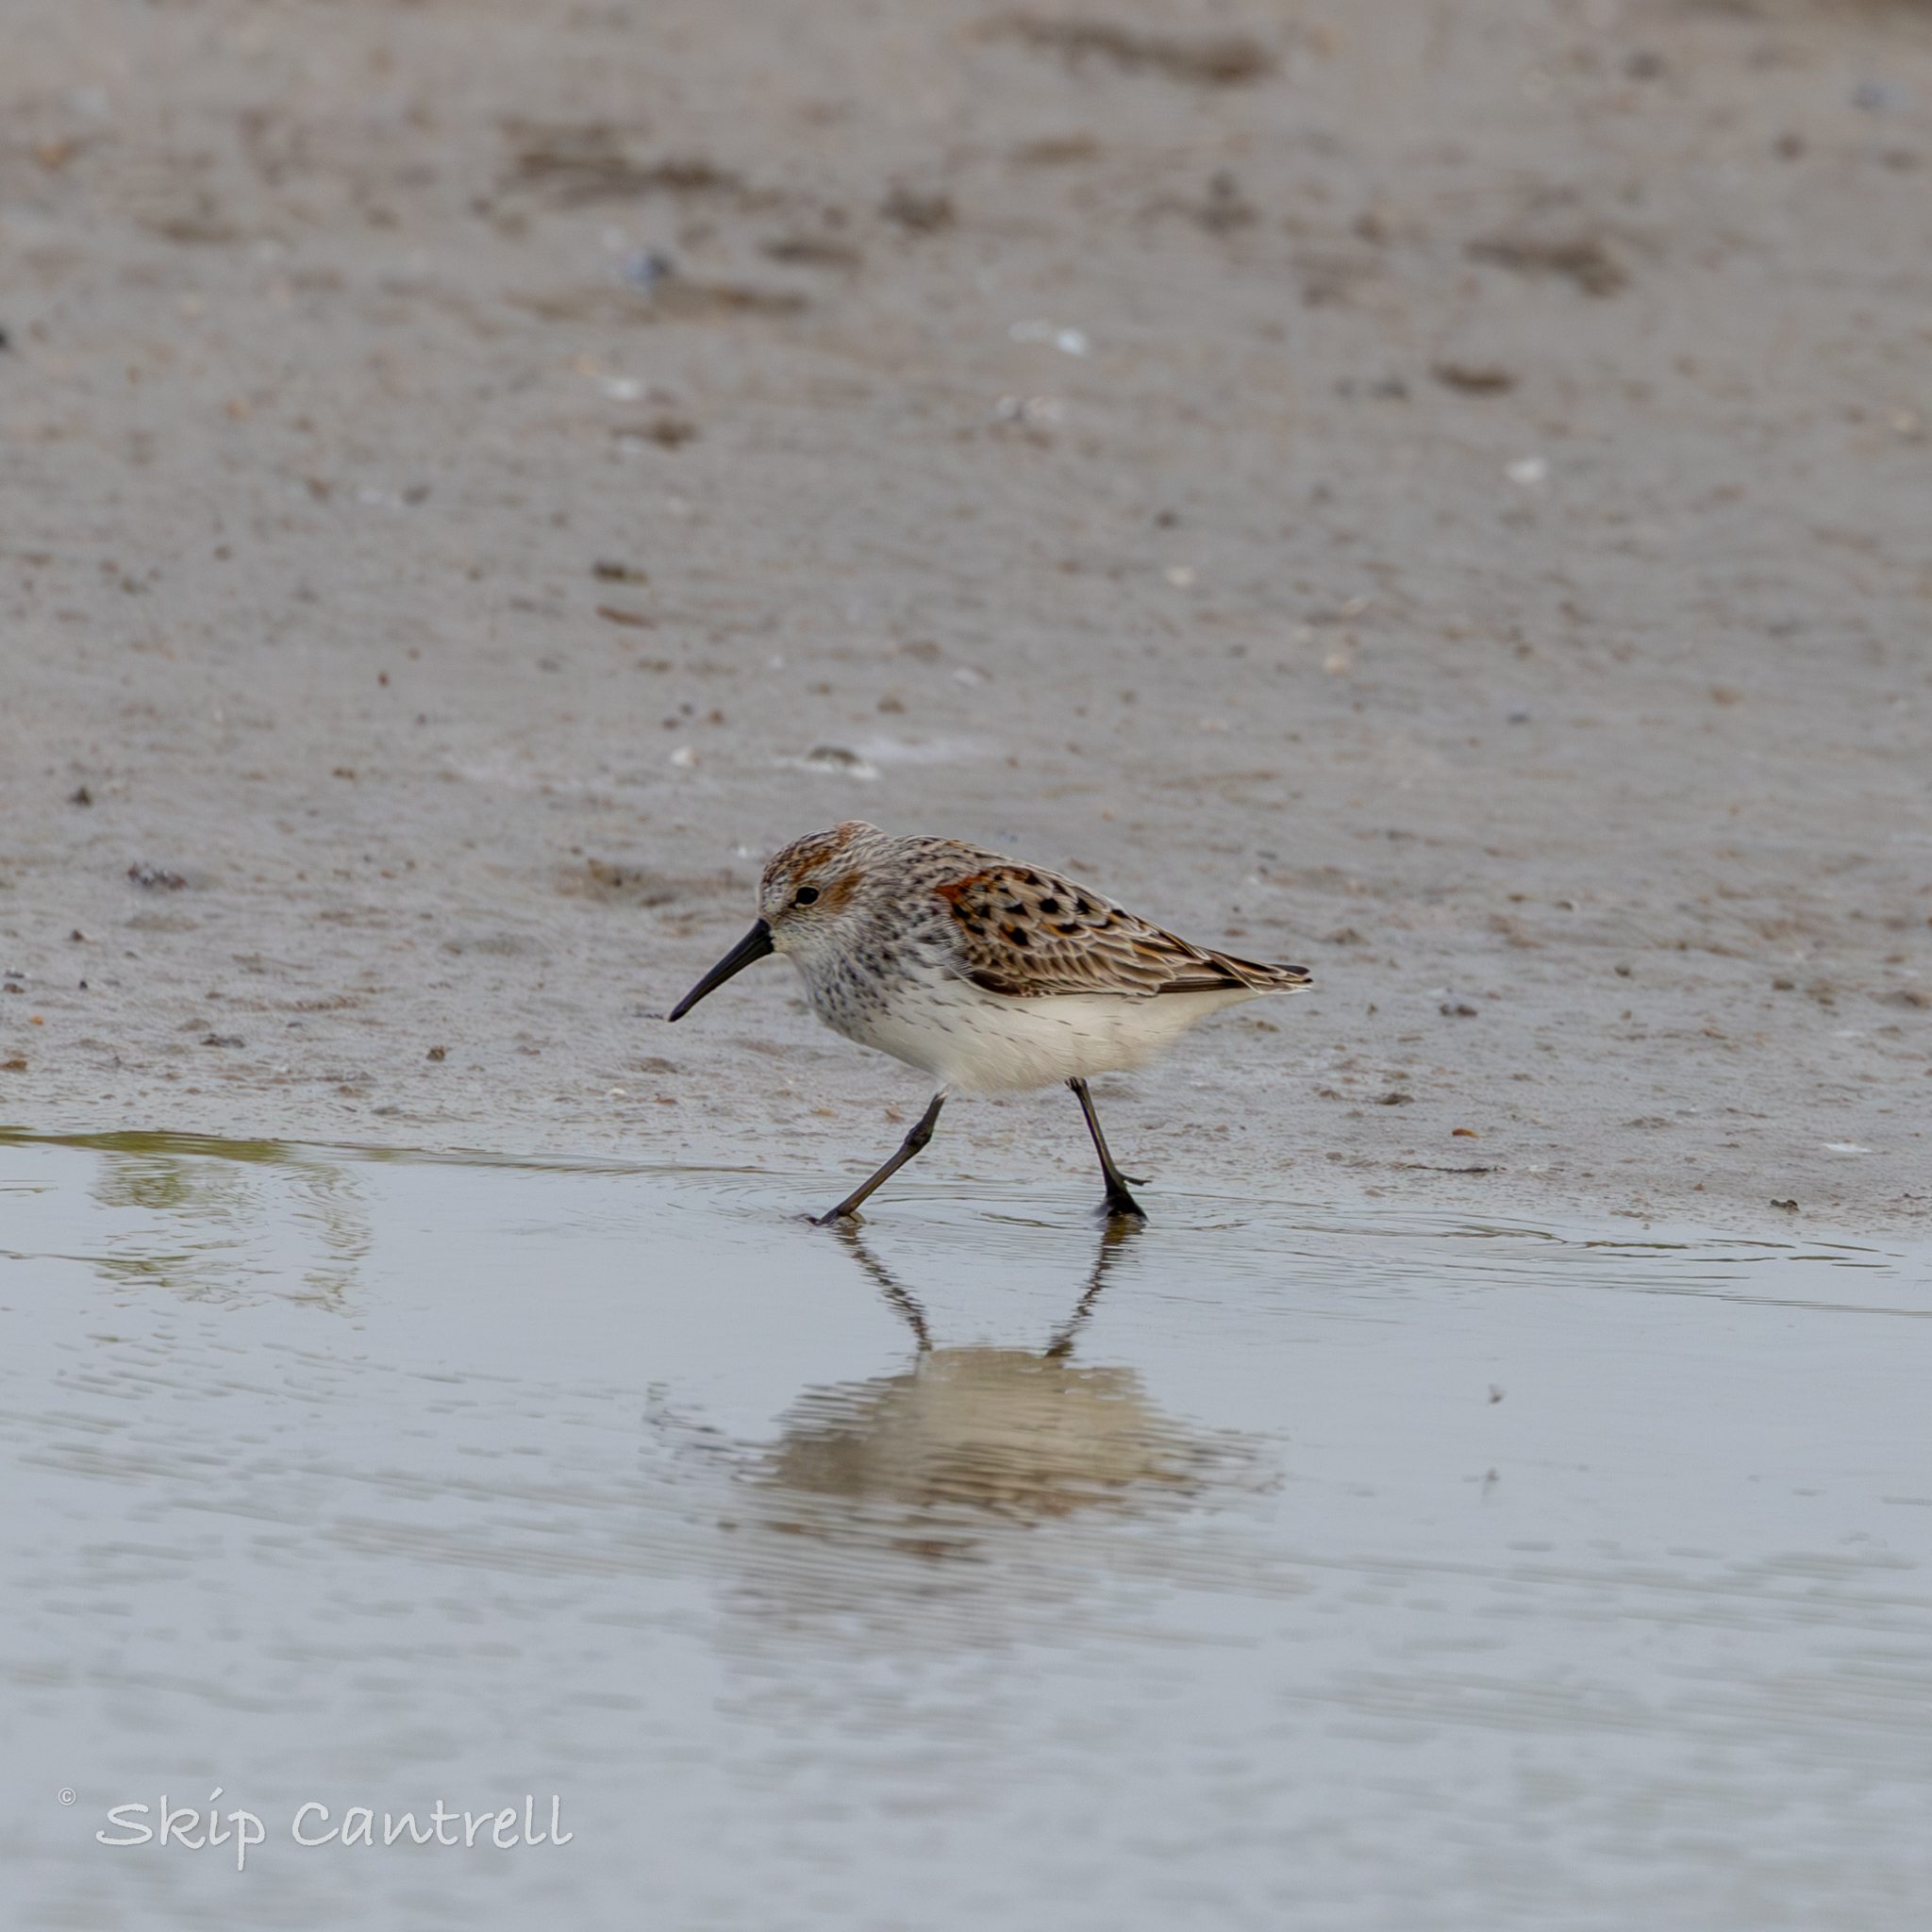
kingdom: Animalia
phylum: Chordata
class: Aves
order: Charadriiformes
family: Scolopacidae
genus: Calidris
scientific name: Calidris mauri
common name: Western sandpiper
